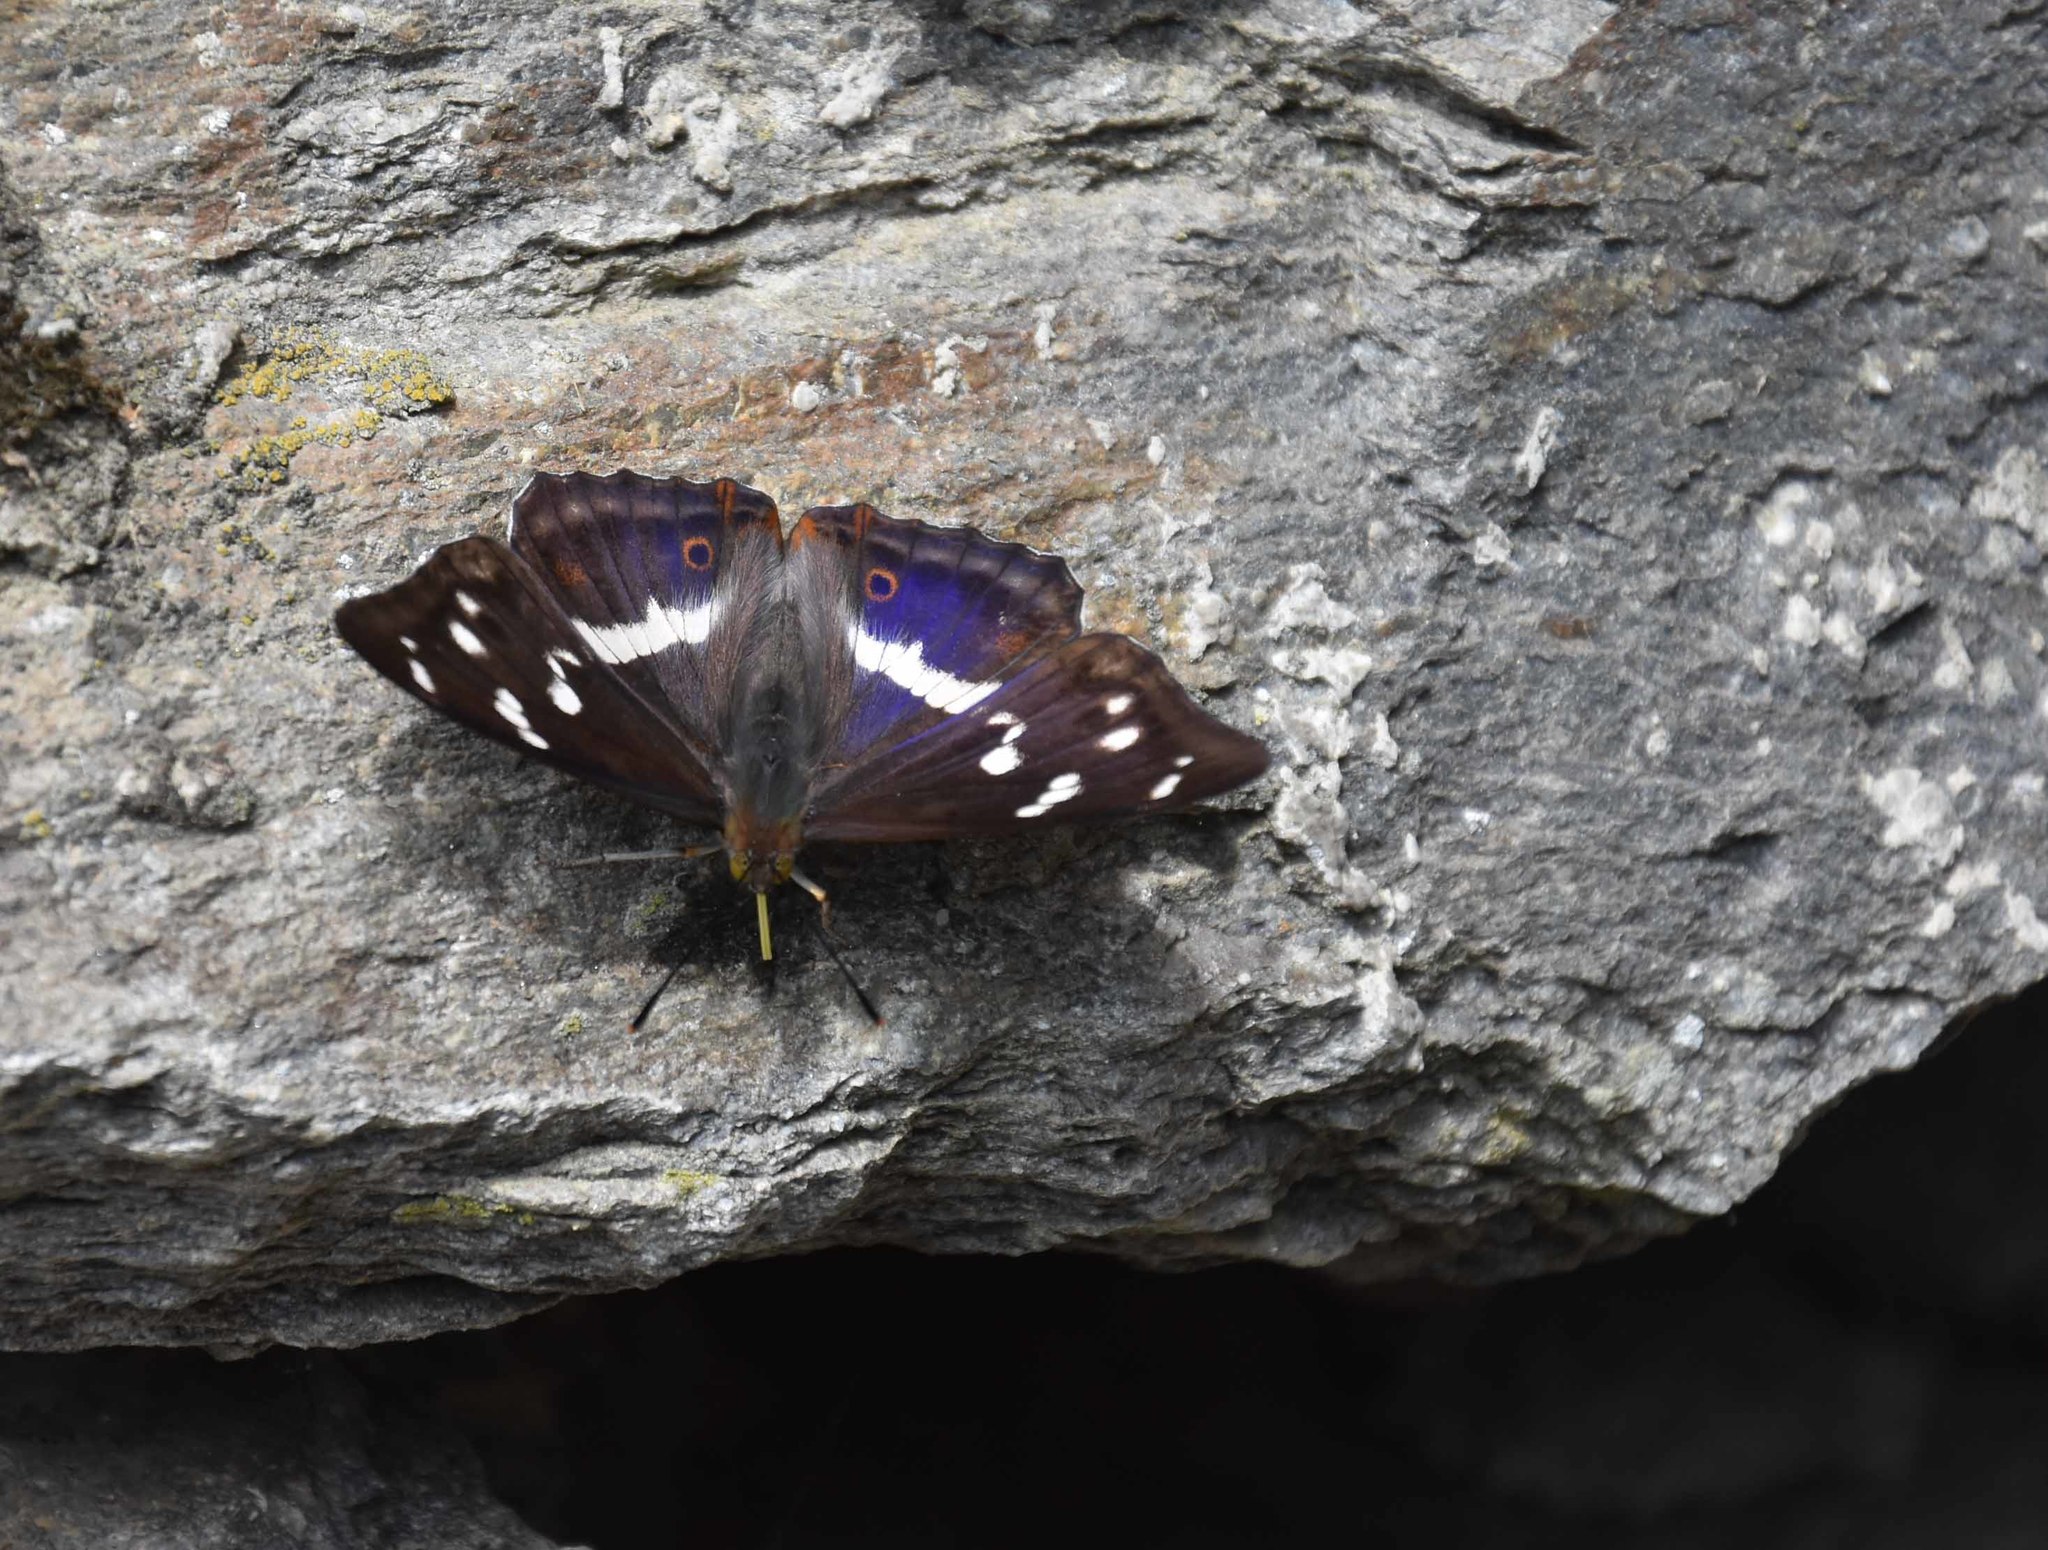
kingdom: Animalia
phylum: Arthropoda
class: Insecta
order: Lepidoptera
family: Nymphalidae
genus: Apatura
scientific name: Apatura iris
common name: Purple emperor
